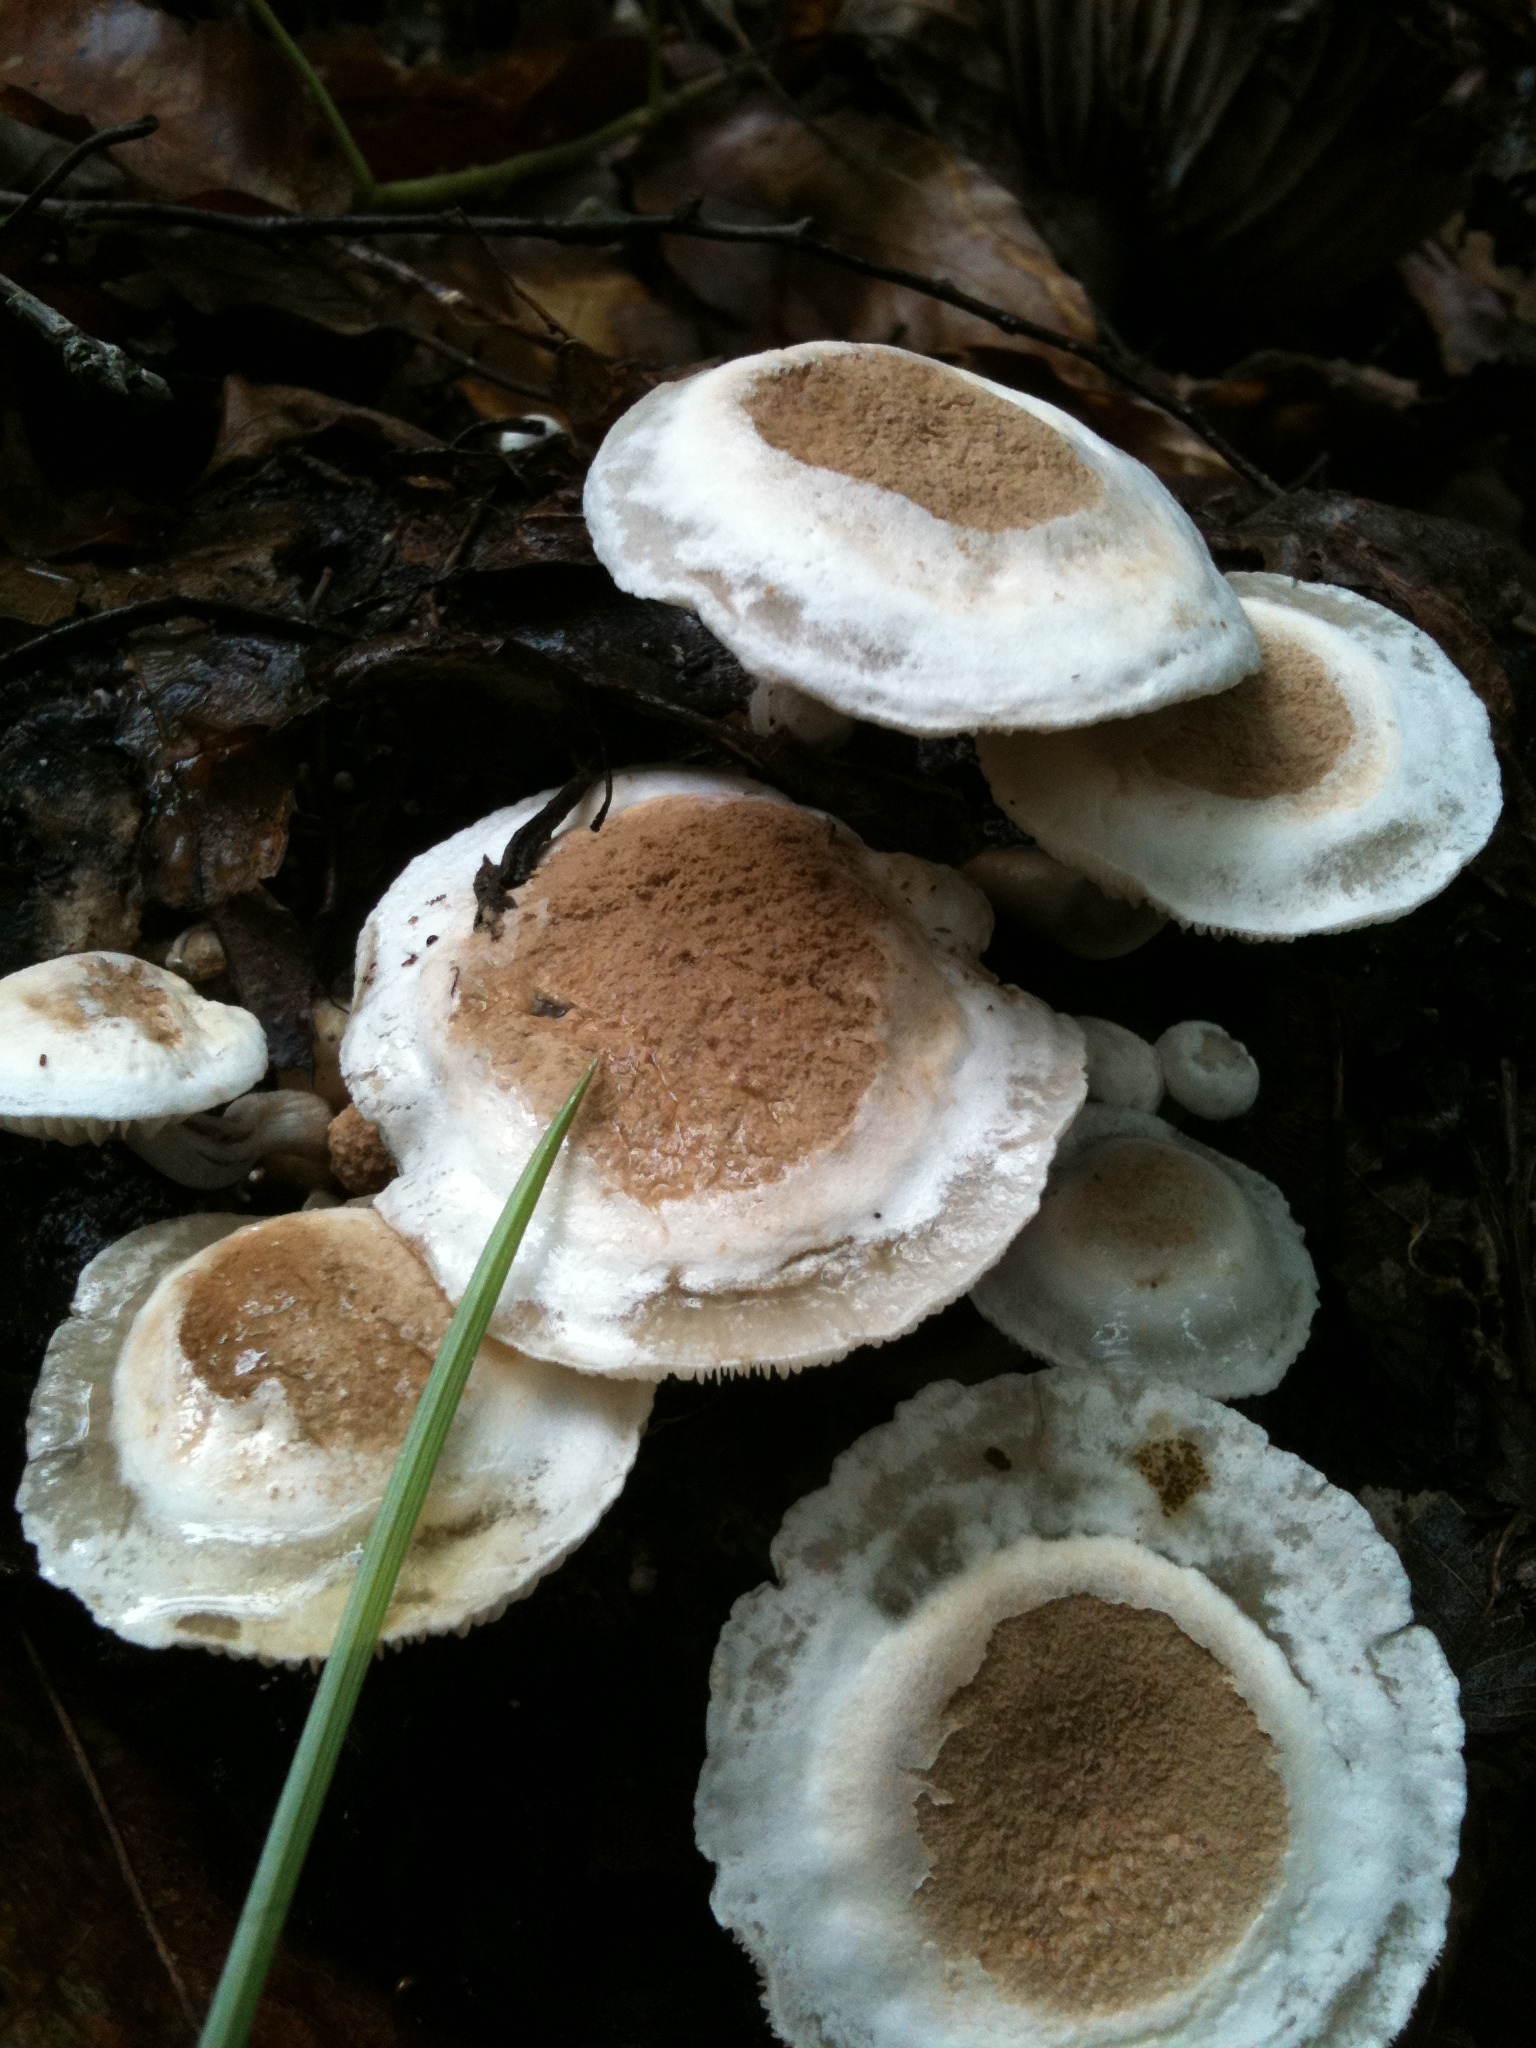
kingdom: Fungi
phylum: Basidiomycota
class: Agaricomycetes
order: Agaricales
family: Lyophyllaceae
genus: Asterophora
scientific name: Asterophora lycoperdoides
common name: Pick-a-back toadstool
